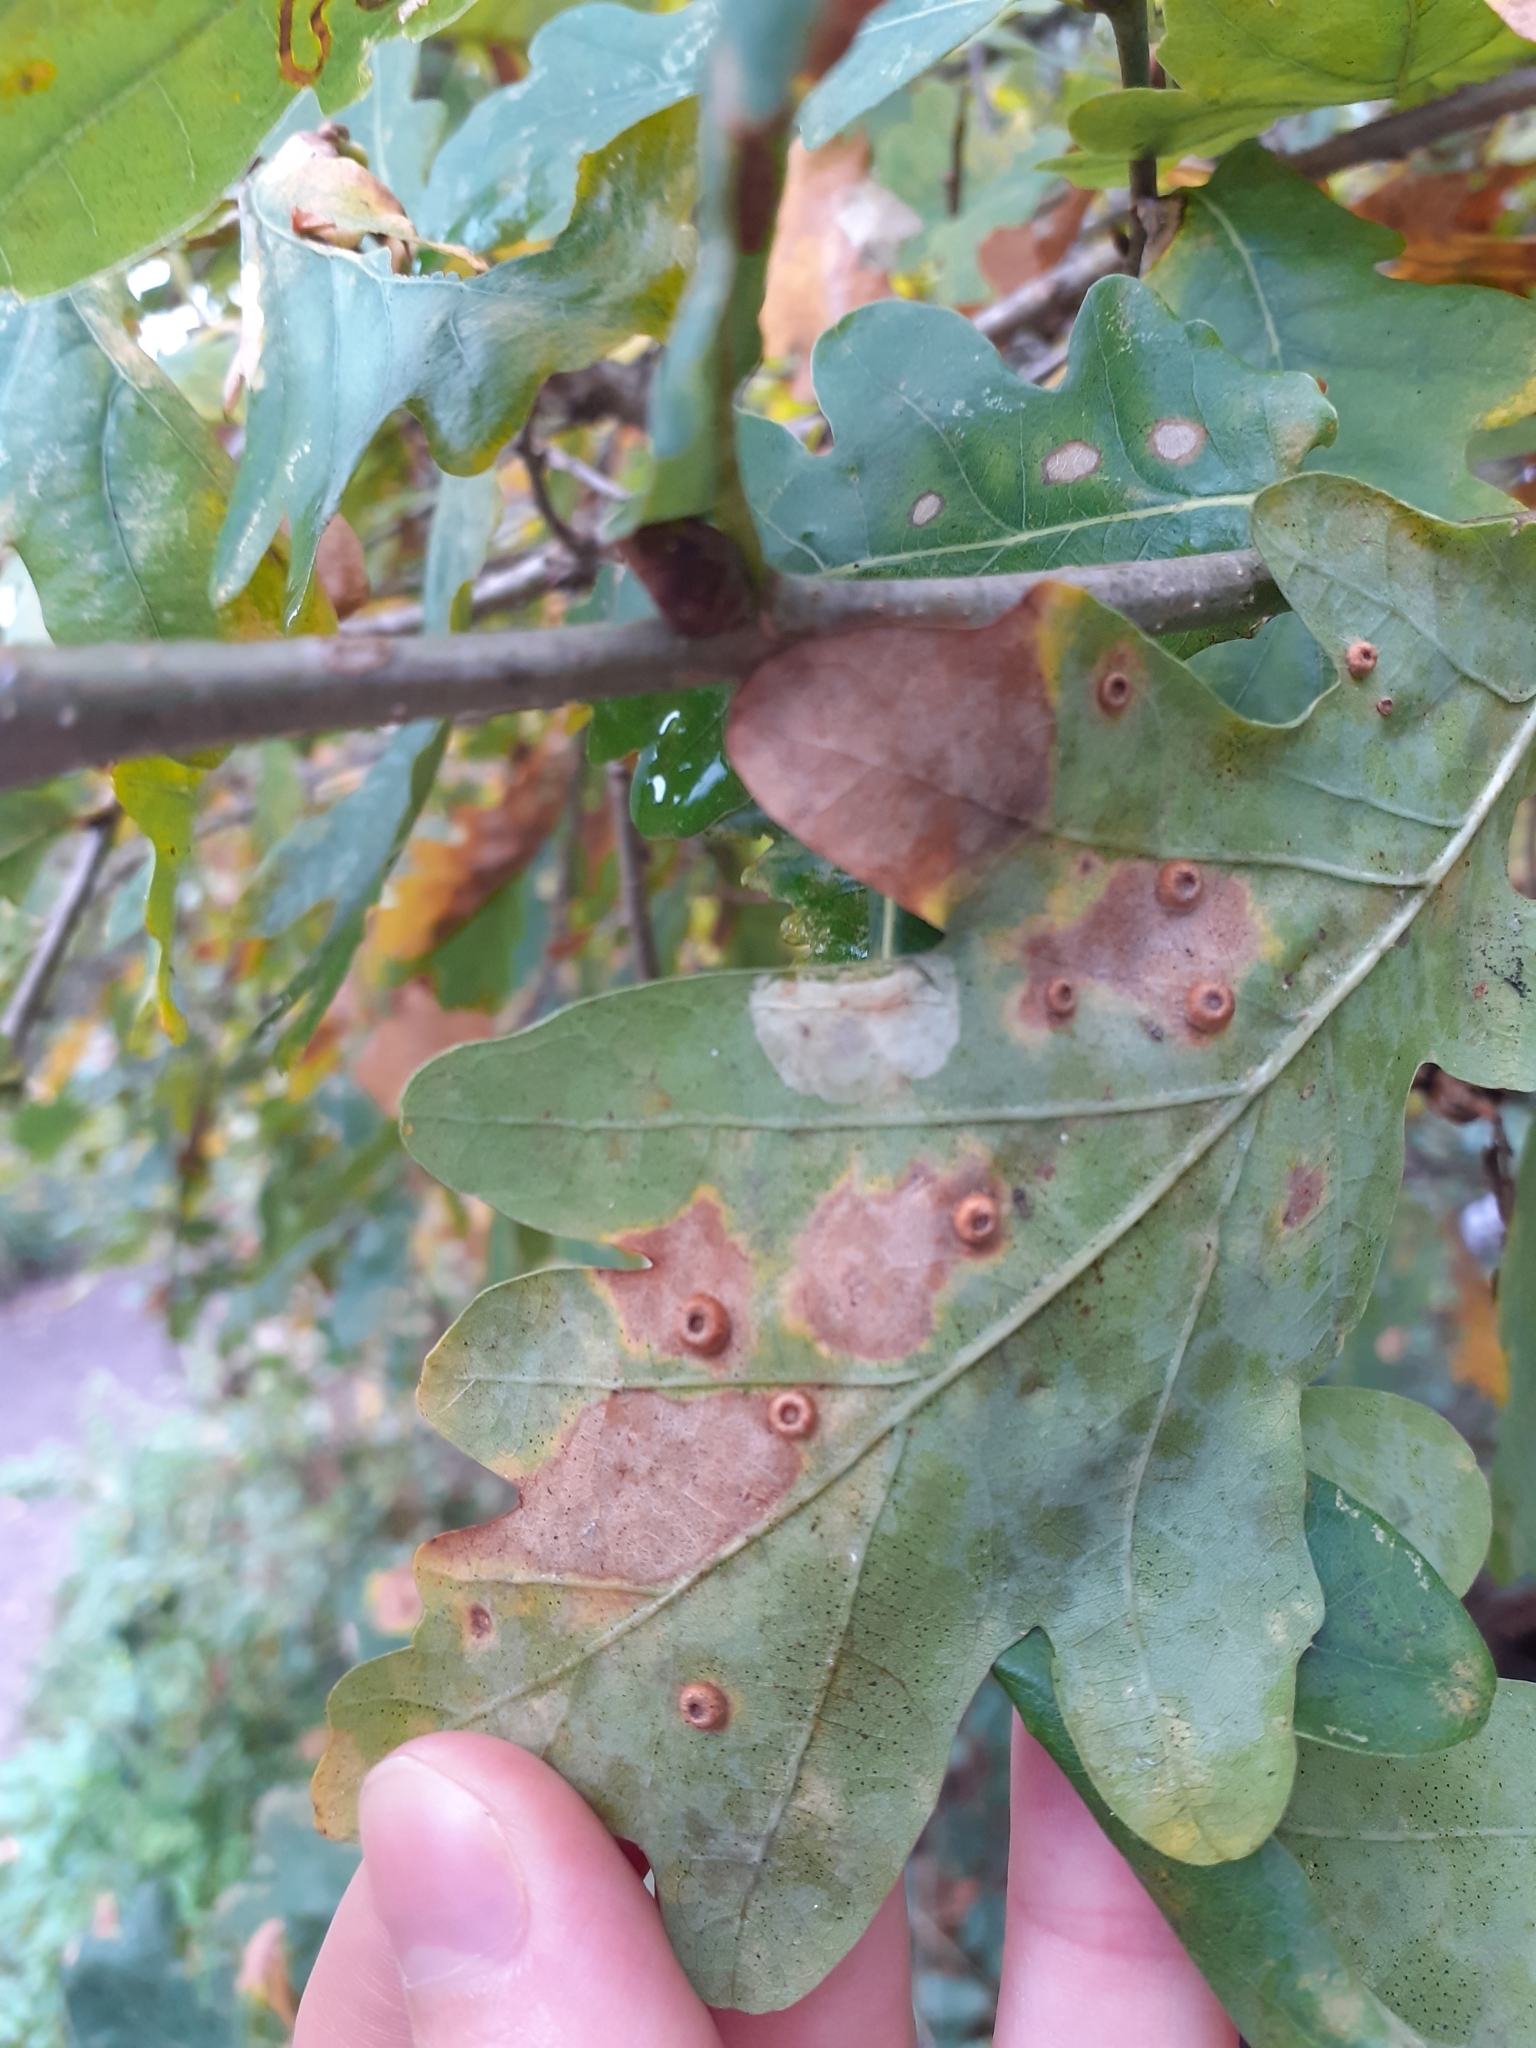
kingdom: Animalia
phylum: Arthropoda
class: Insecta
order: Hymenoptera
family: Cynipidae
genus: Neuroterus
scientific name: Neuroterus numismalis
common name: Silk-button spangle gall
